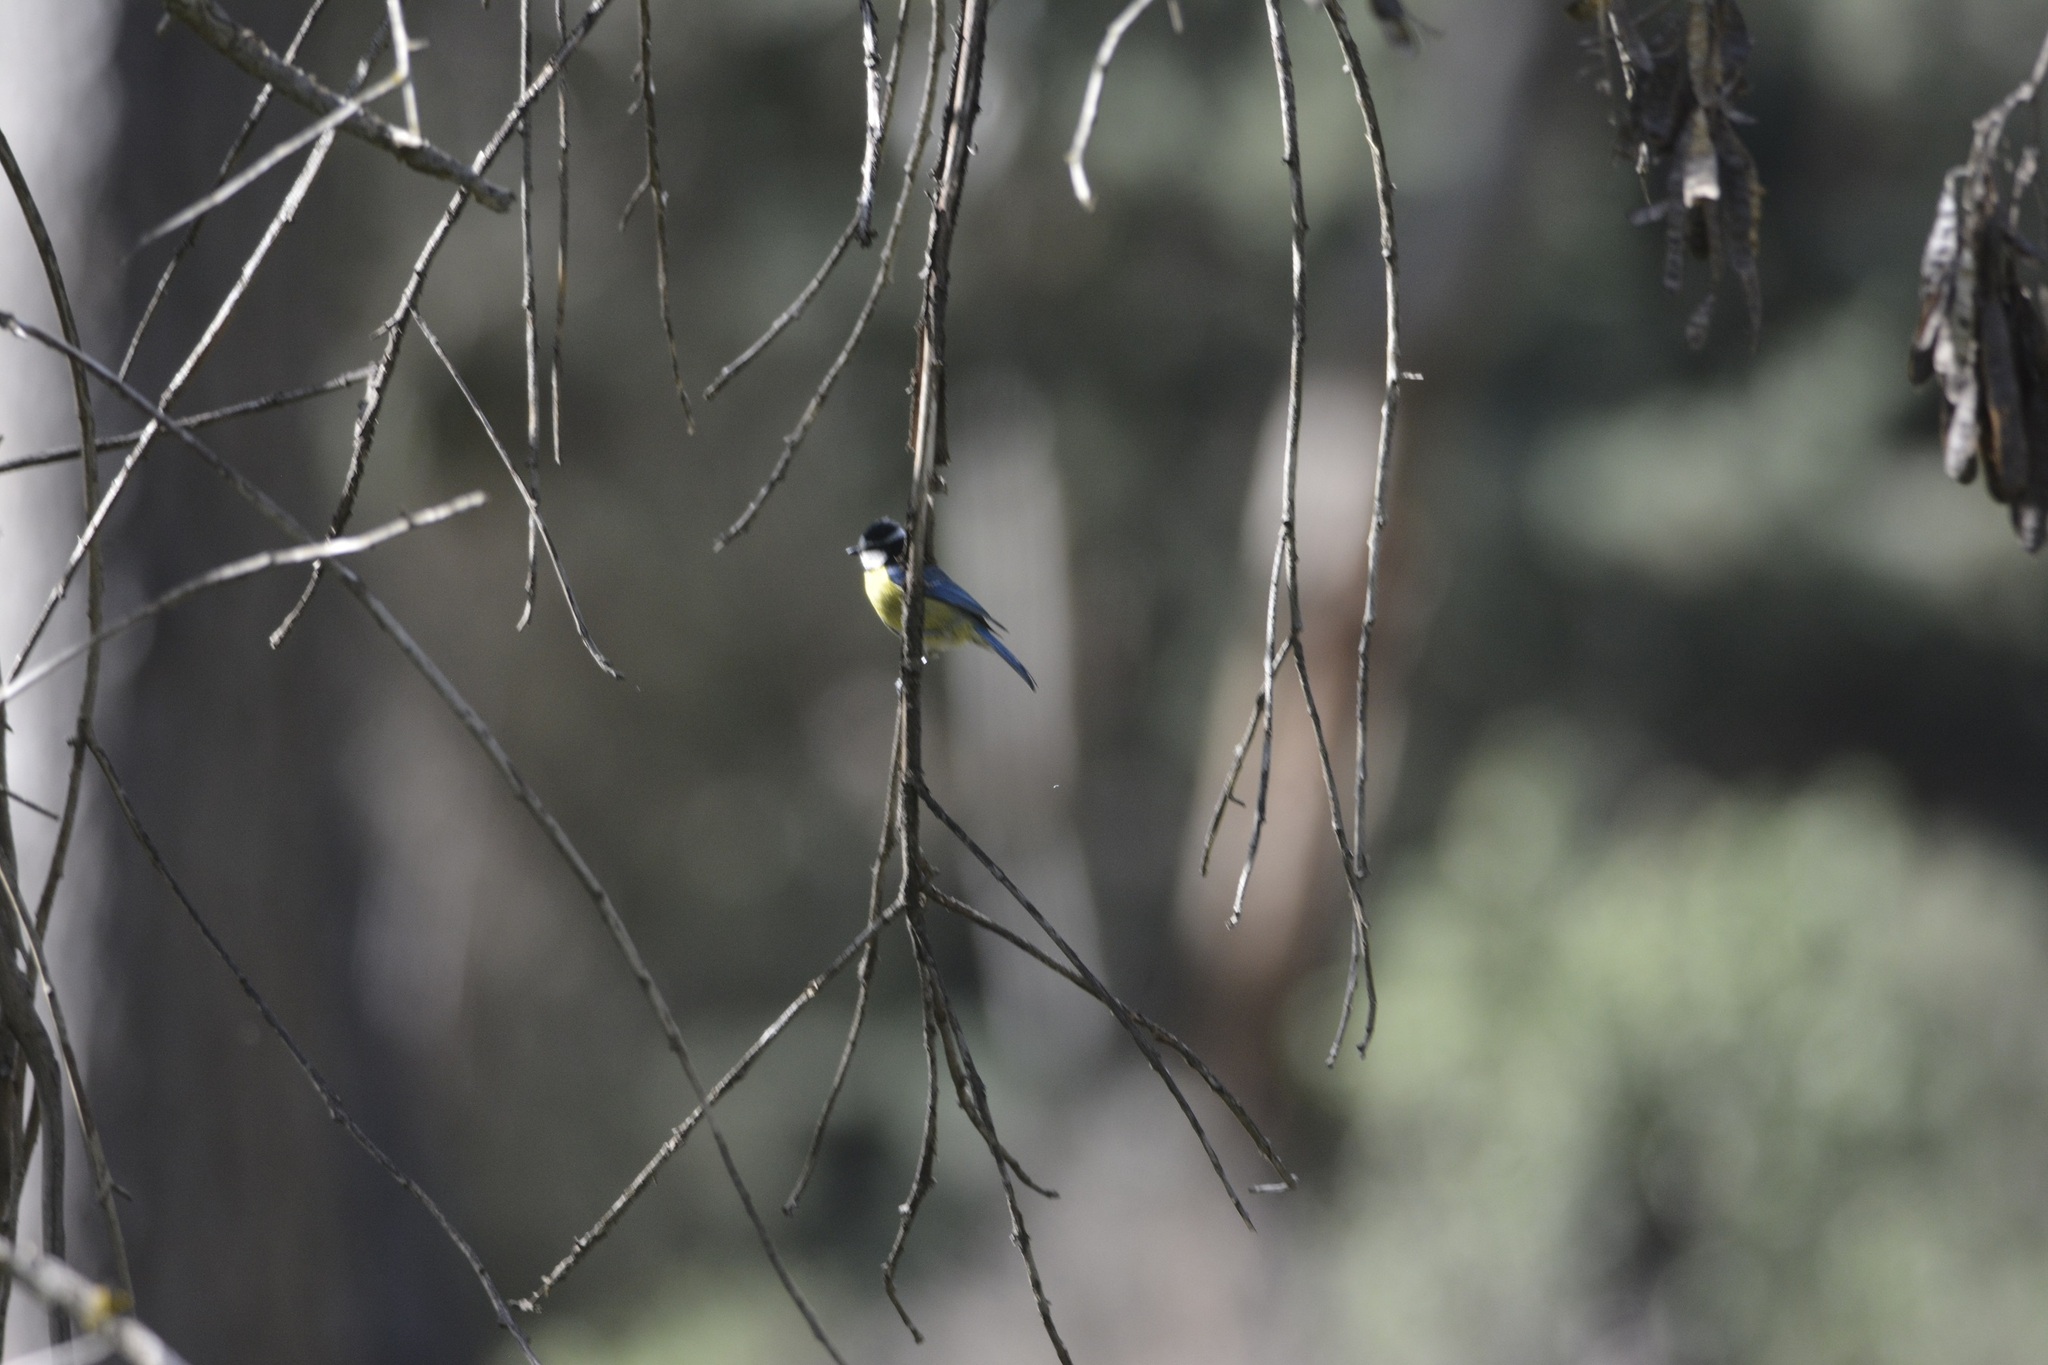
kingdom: Animalia
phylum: Chordata
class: Aves
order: Passeriformes
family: Paridae
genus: Cyanistes
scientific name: Cyanistes teneriffae
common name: African blue tit
